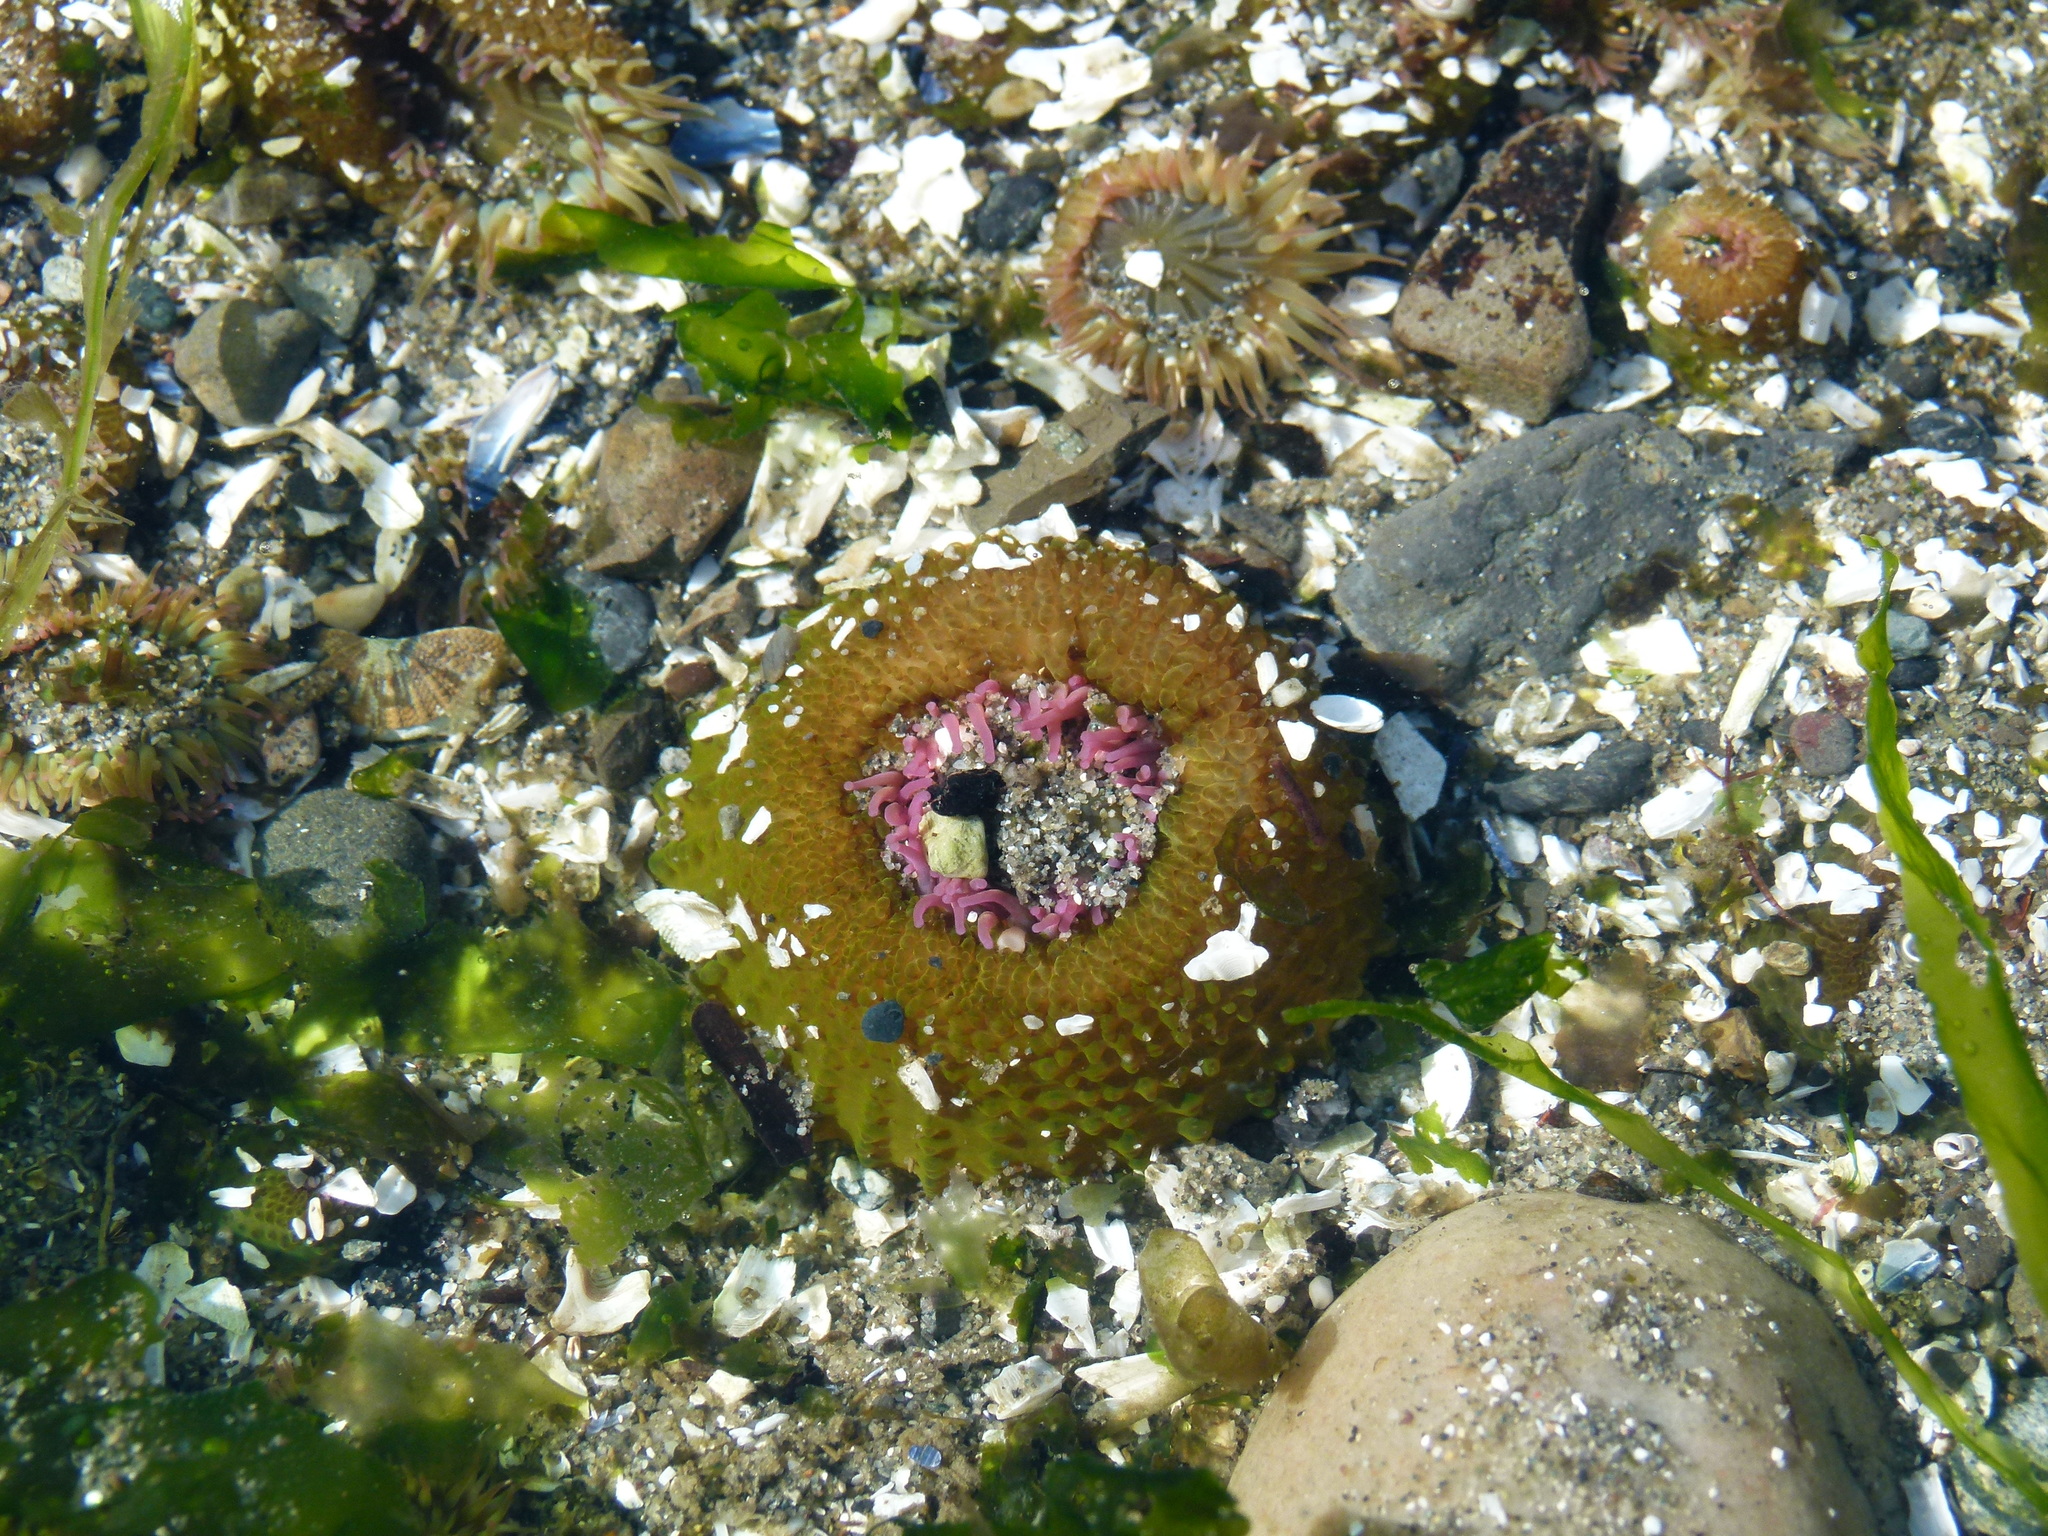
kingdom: Animalia
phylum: Cnidaria
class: Anthozoa
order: Actiniaria
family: Actiniidae
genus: Anthopleura
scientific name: Anthopleura elegantissima
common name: Clonal anemone
